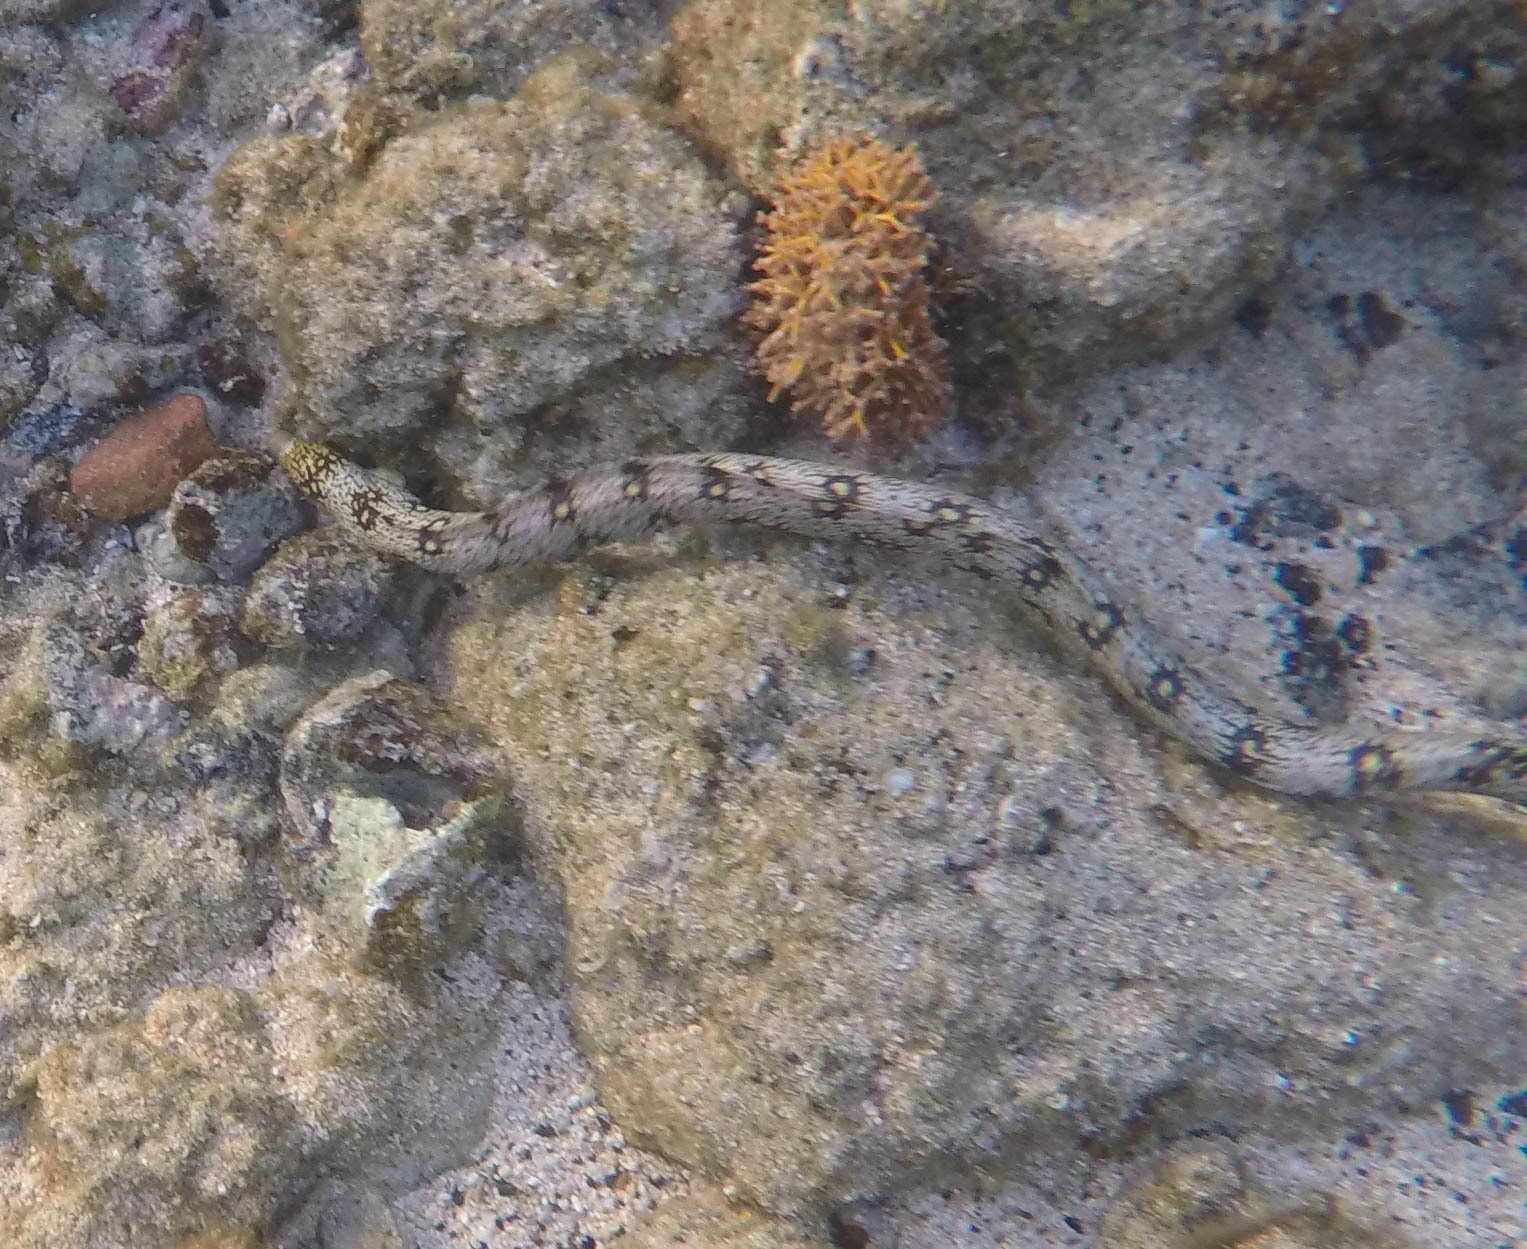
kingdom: Animalia
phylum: Chordata
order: Anguilliformes
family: Muraenidae
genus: Echidna
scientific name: Echidna nebulosa
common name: Snowflake moray
